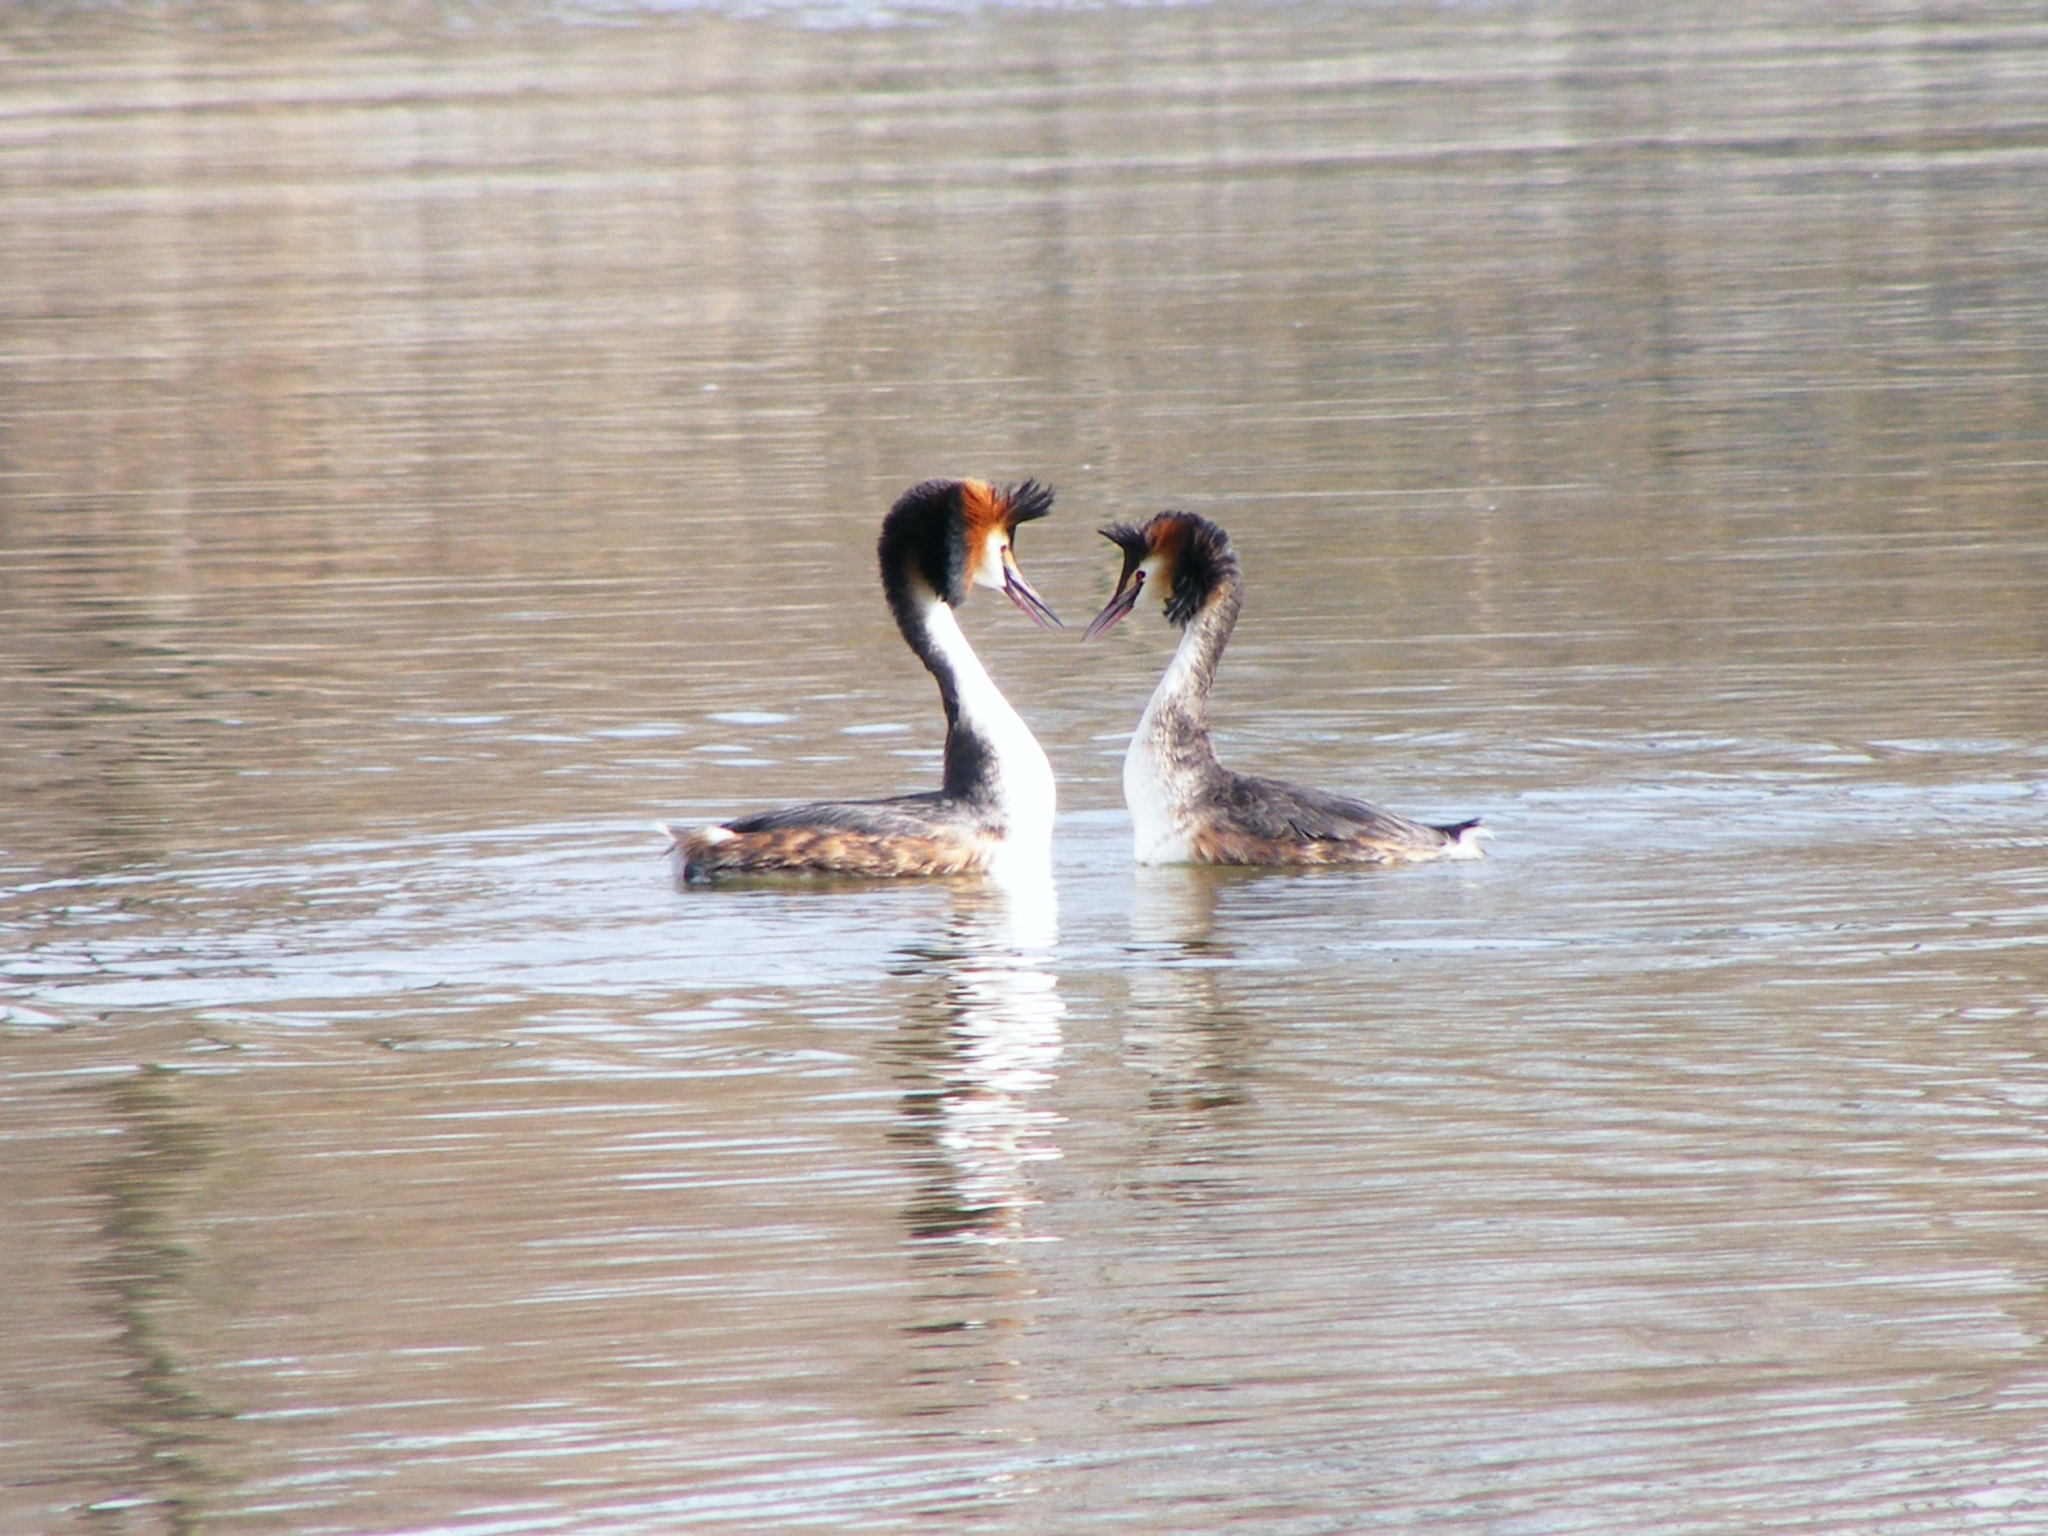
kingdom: Animalia
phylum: Chordata
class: Aves
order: Podicipediformes
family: Podicipedidae
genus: Podiceps
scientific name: Podiceps cristatus
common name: Great crested grebe
